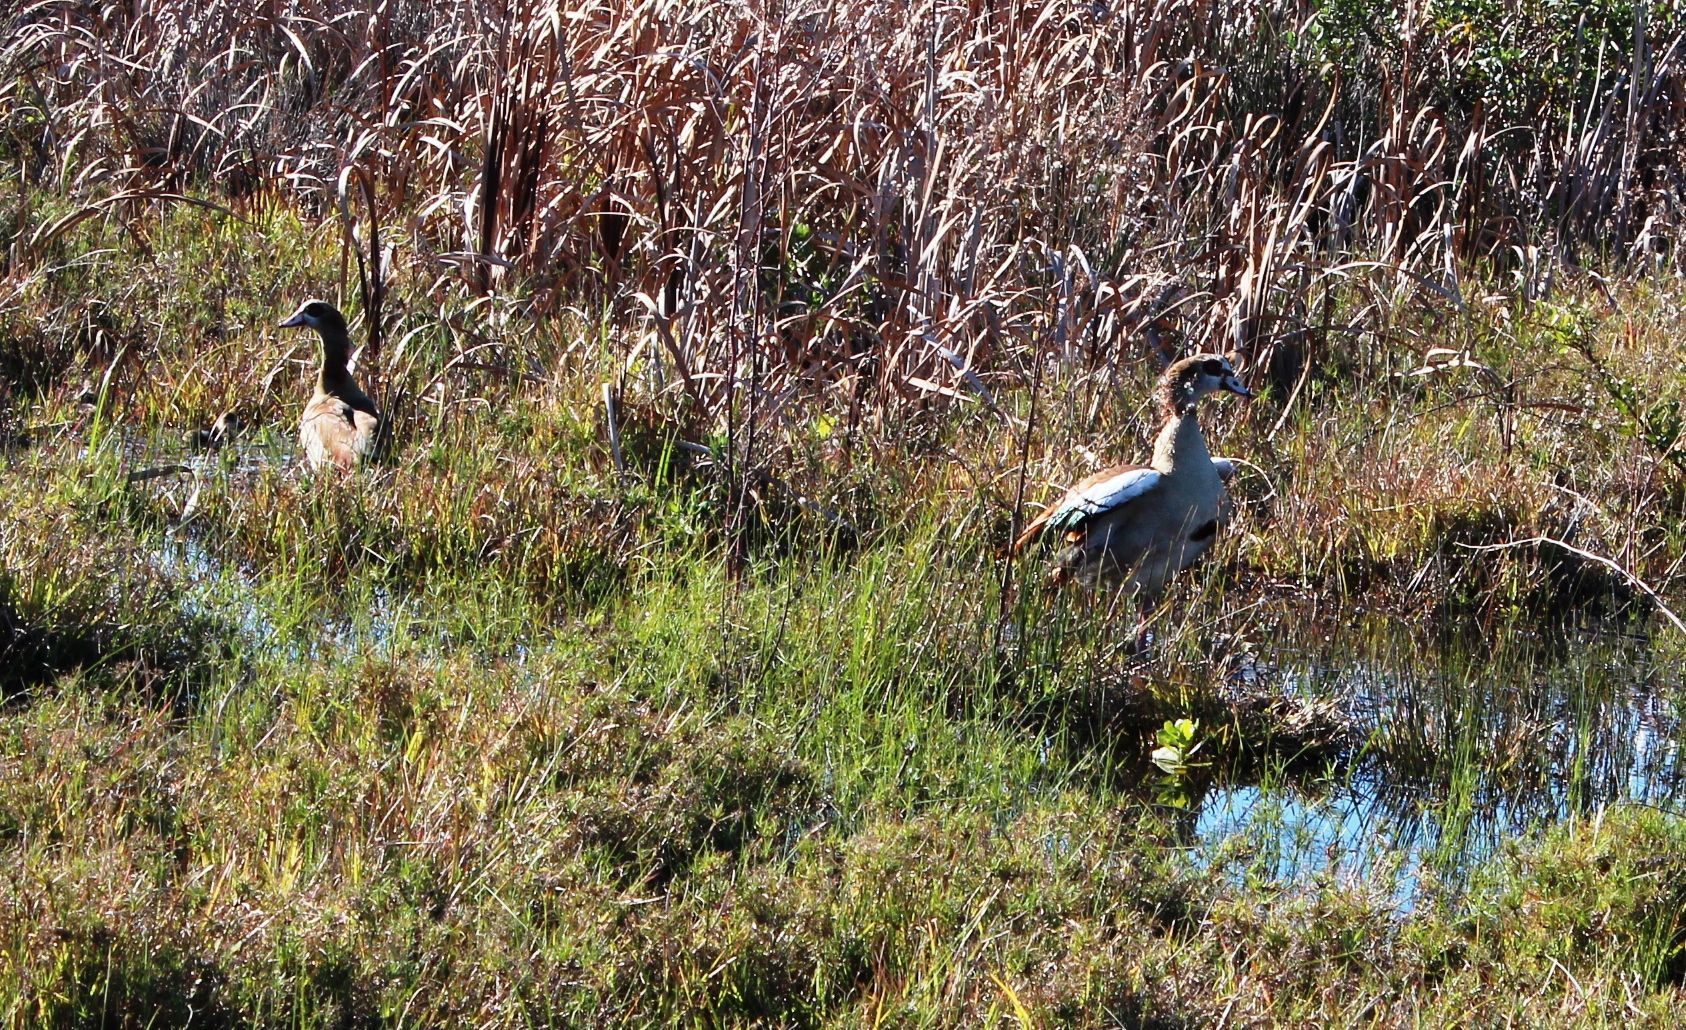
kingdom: Animalia
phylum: Chordata
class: Aves
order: Anseriformes
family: Anatidae
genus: Alopochen
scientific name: Alopochen aegyptiaca
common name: Egyptian goose
